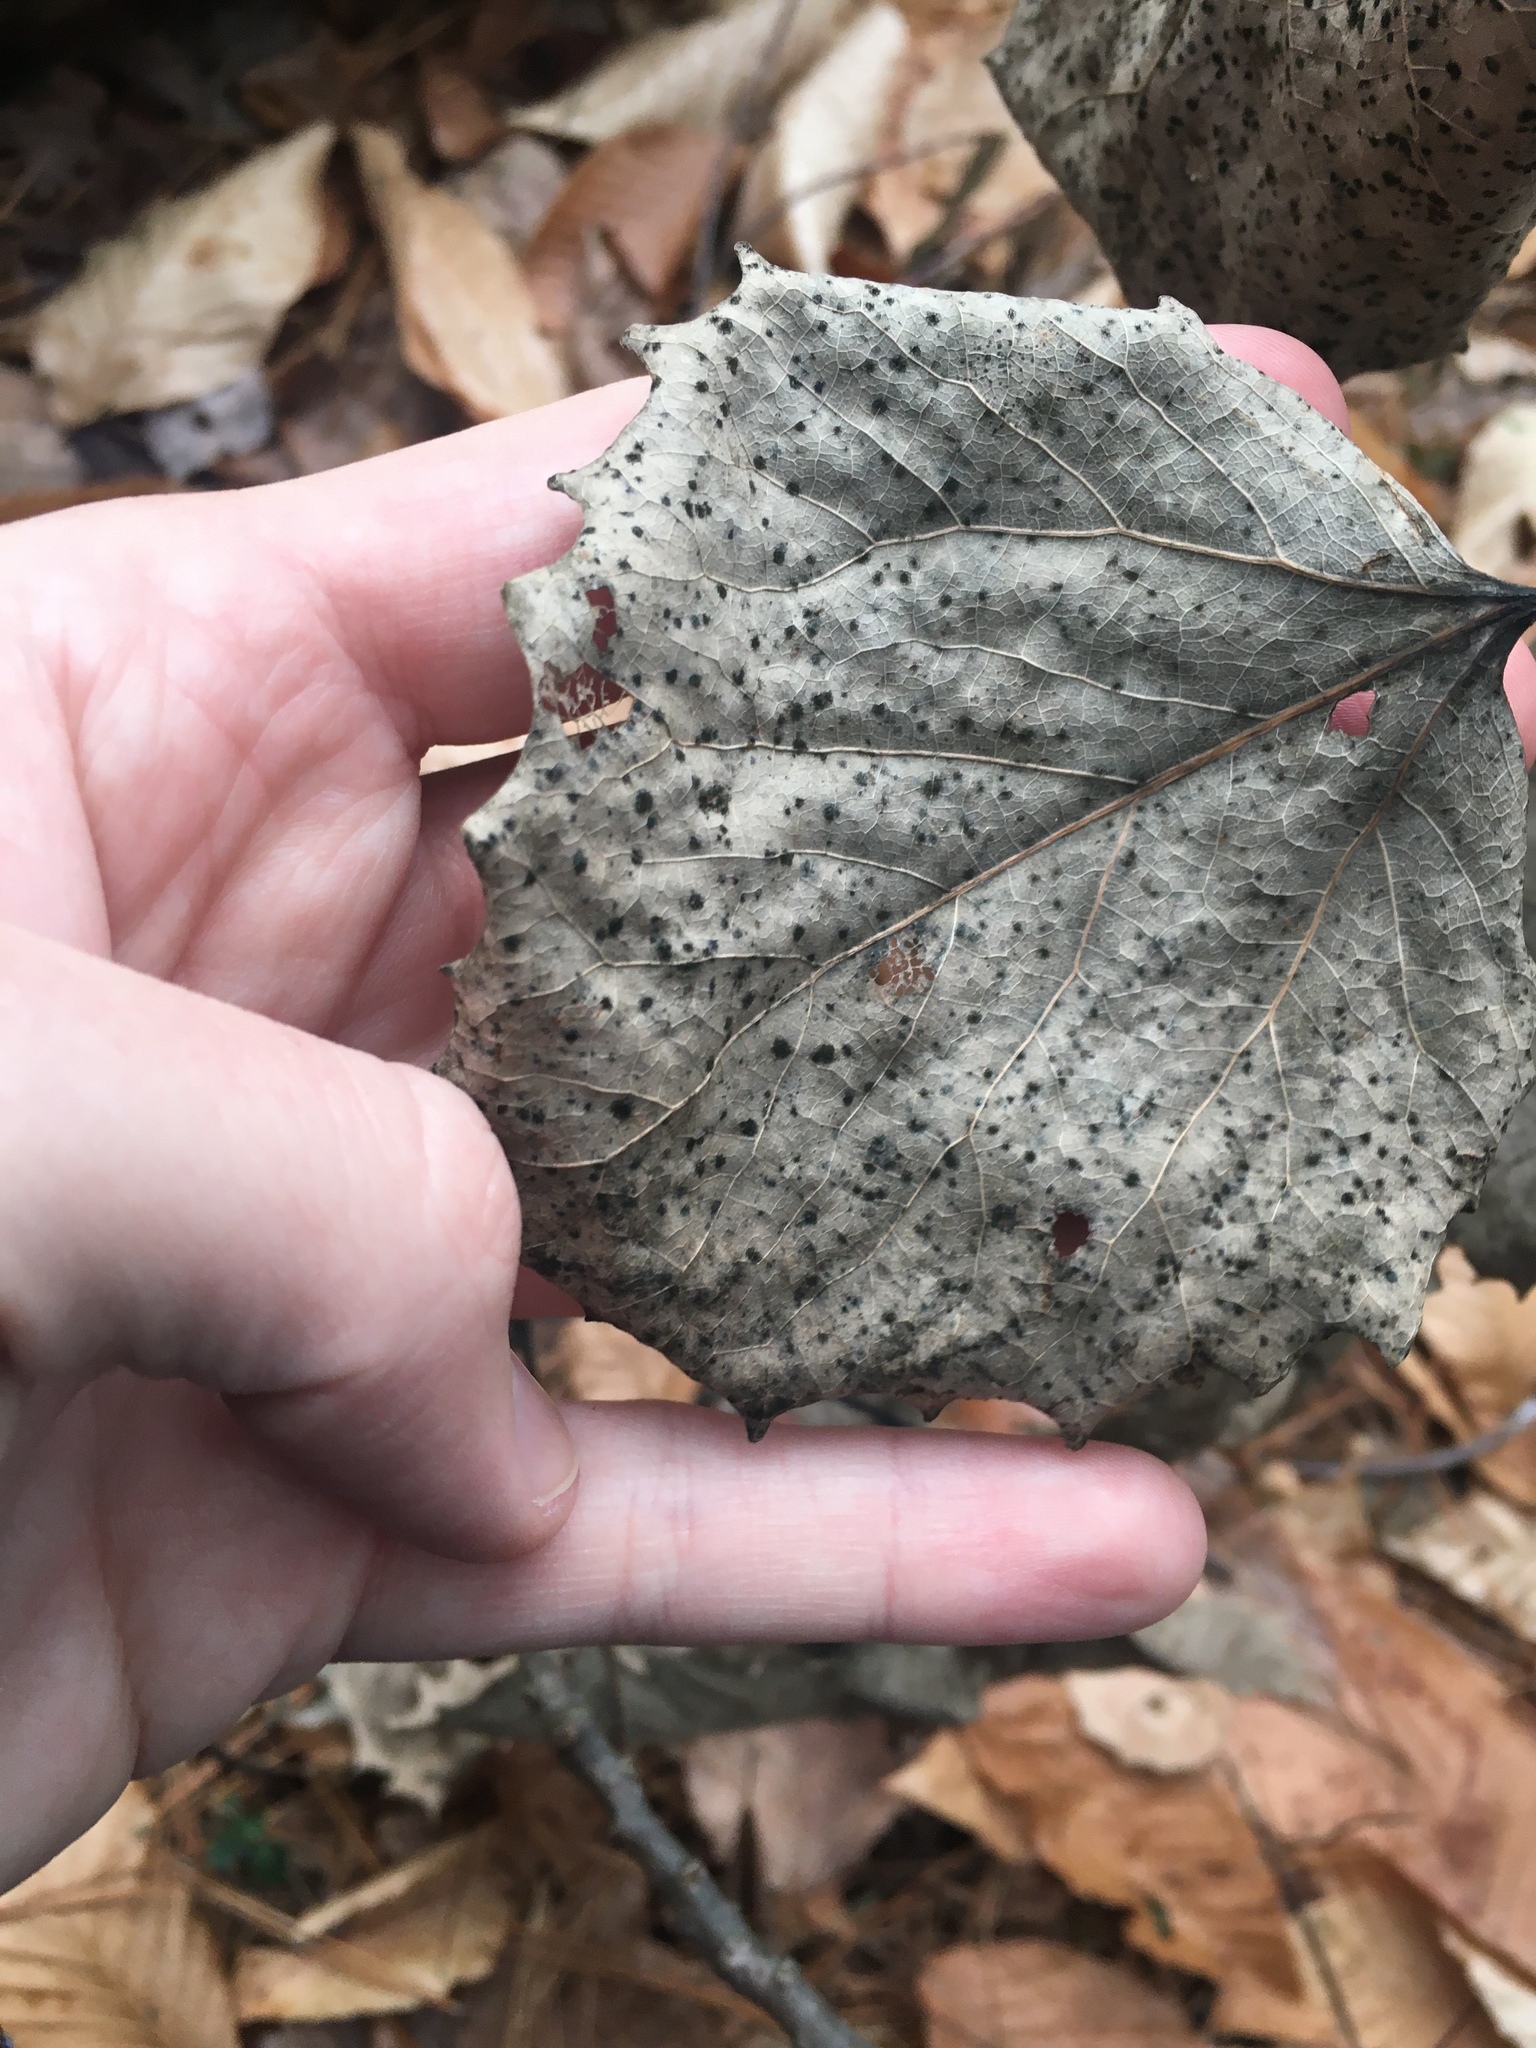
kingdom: Plantae
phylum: Tracheophyta
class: Magnoliopsida
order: Malpighiales
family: Salicaceae
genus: Populus
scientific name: Populus grandidentata
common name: Bigtooth aspen
